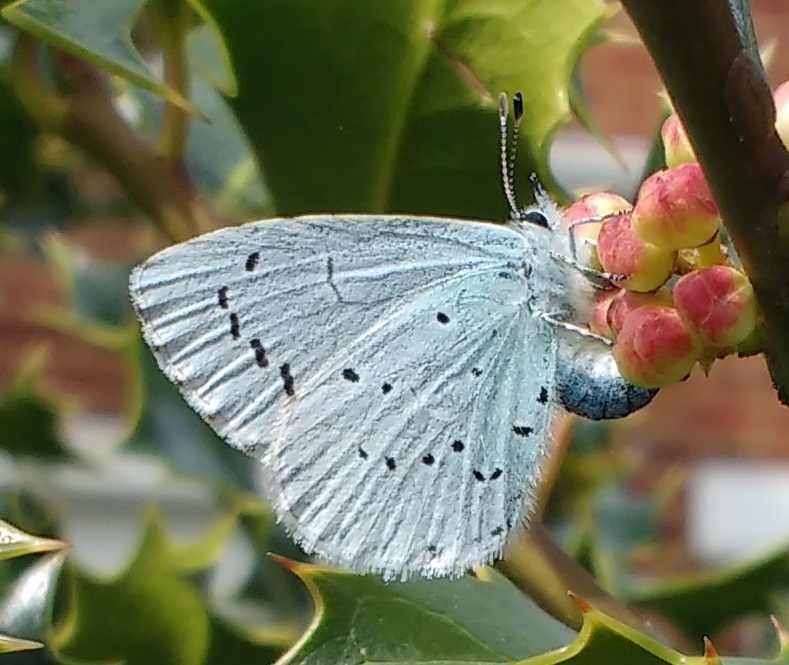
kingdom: Animalia
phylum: Arthropoda
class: Insecta
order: Lepidoptera
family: Lycaenidae
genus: Celastrina
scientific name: Celastrina argiolus
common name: Holly blue
